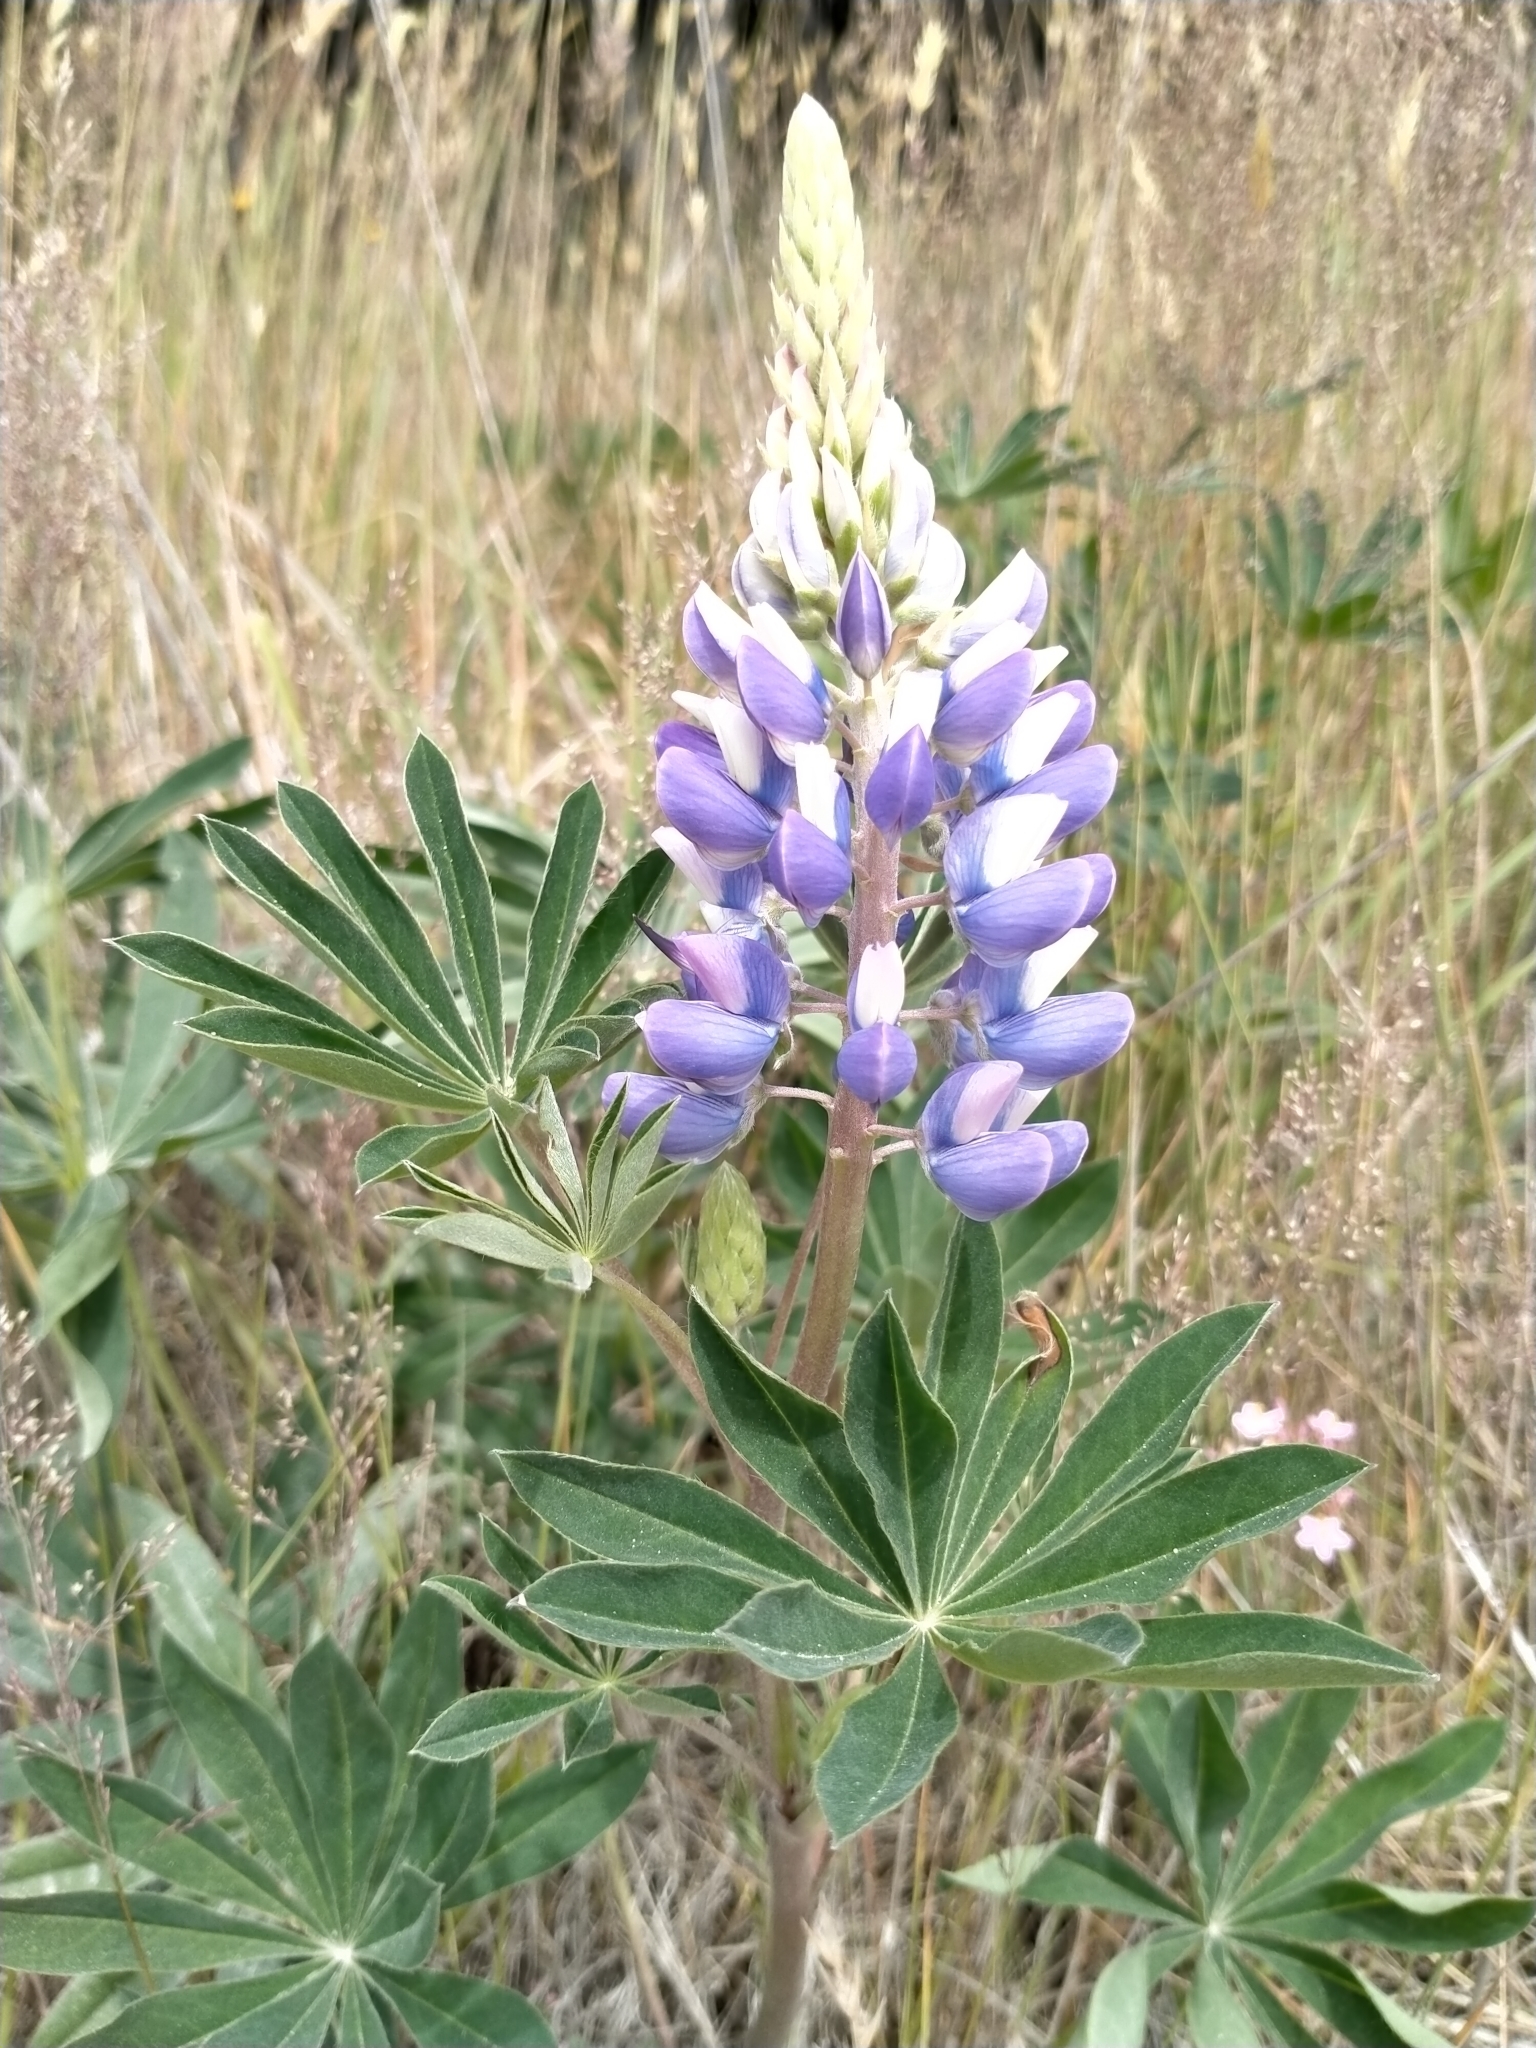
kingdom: Plantae
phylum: Tracheophyta
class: Magnoliopsida
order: Fabales
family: Fabaceae
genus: Lupinus
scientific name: Lupinus polyphyllus
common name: Garden lupin
